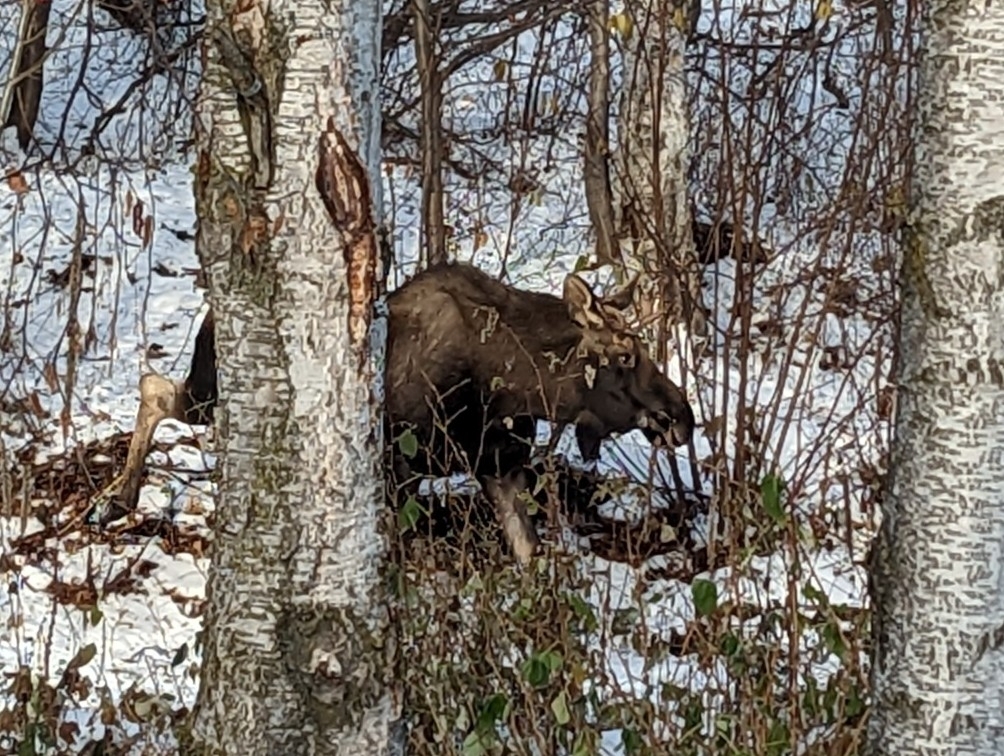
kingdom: Animalia
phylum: Chordata
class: Mammalia
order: Artiodactyla
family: Cervidae
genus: Alces
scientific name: Alces alces
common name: Moose
